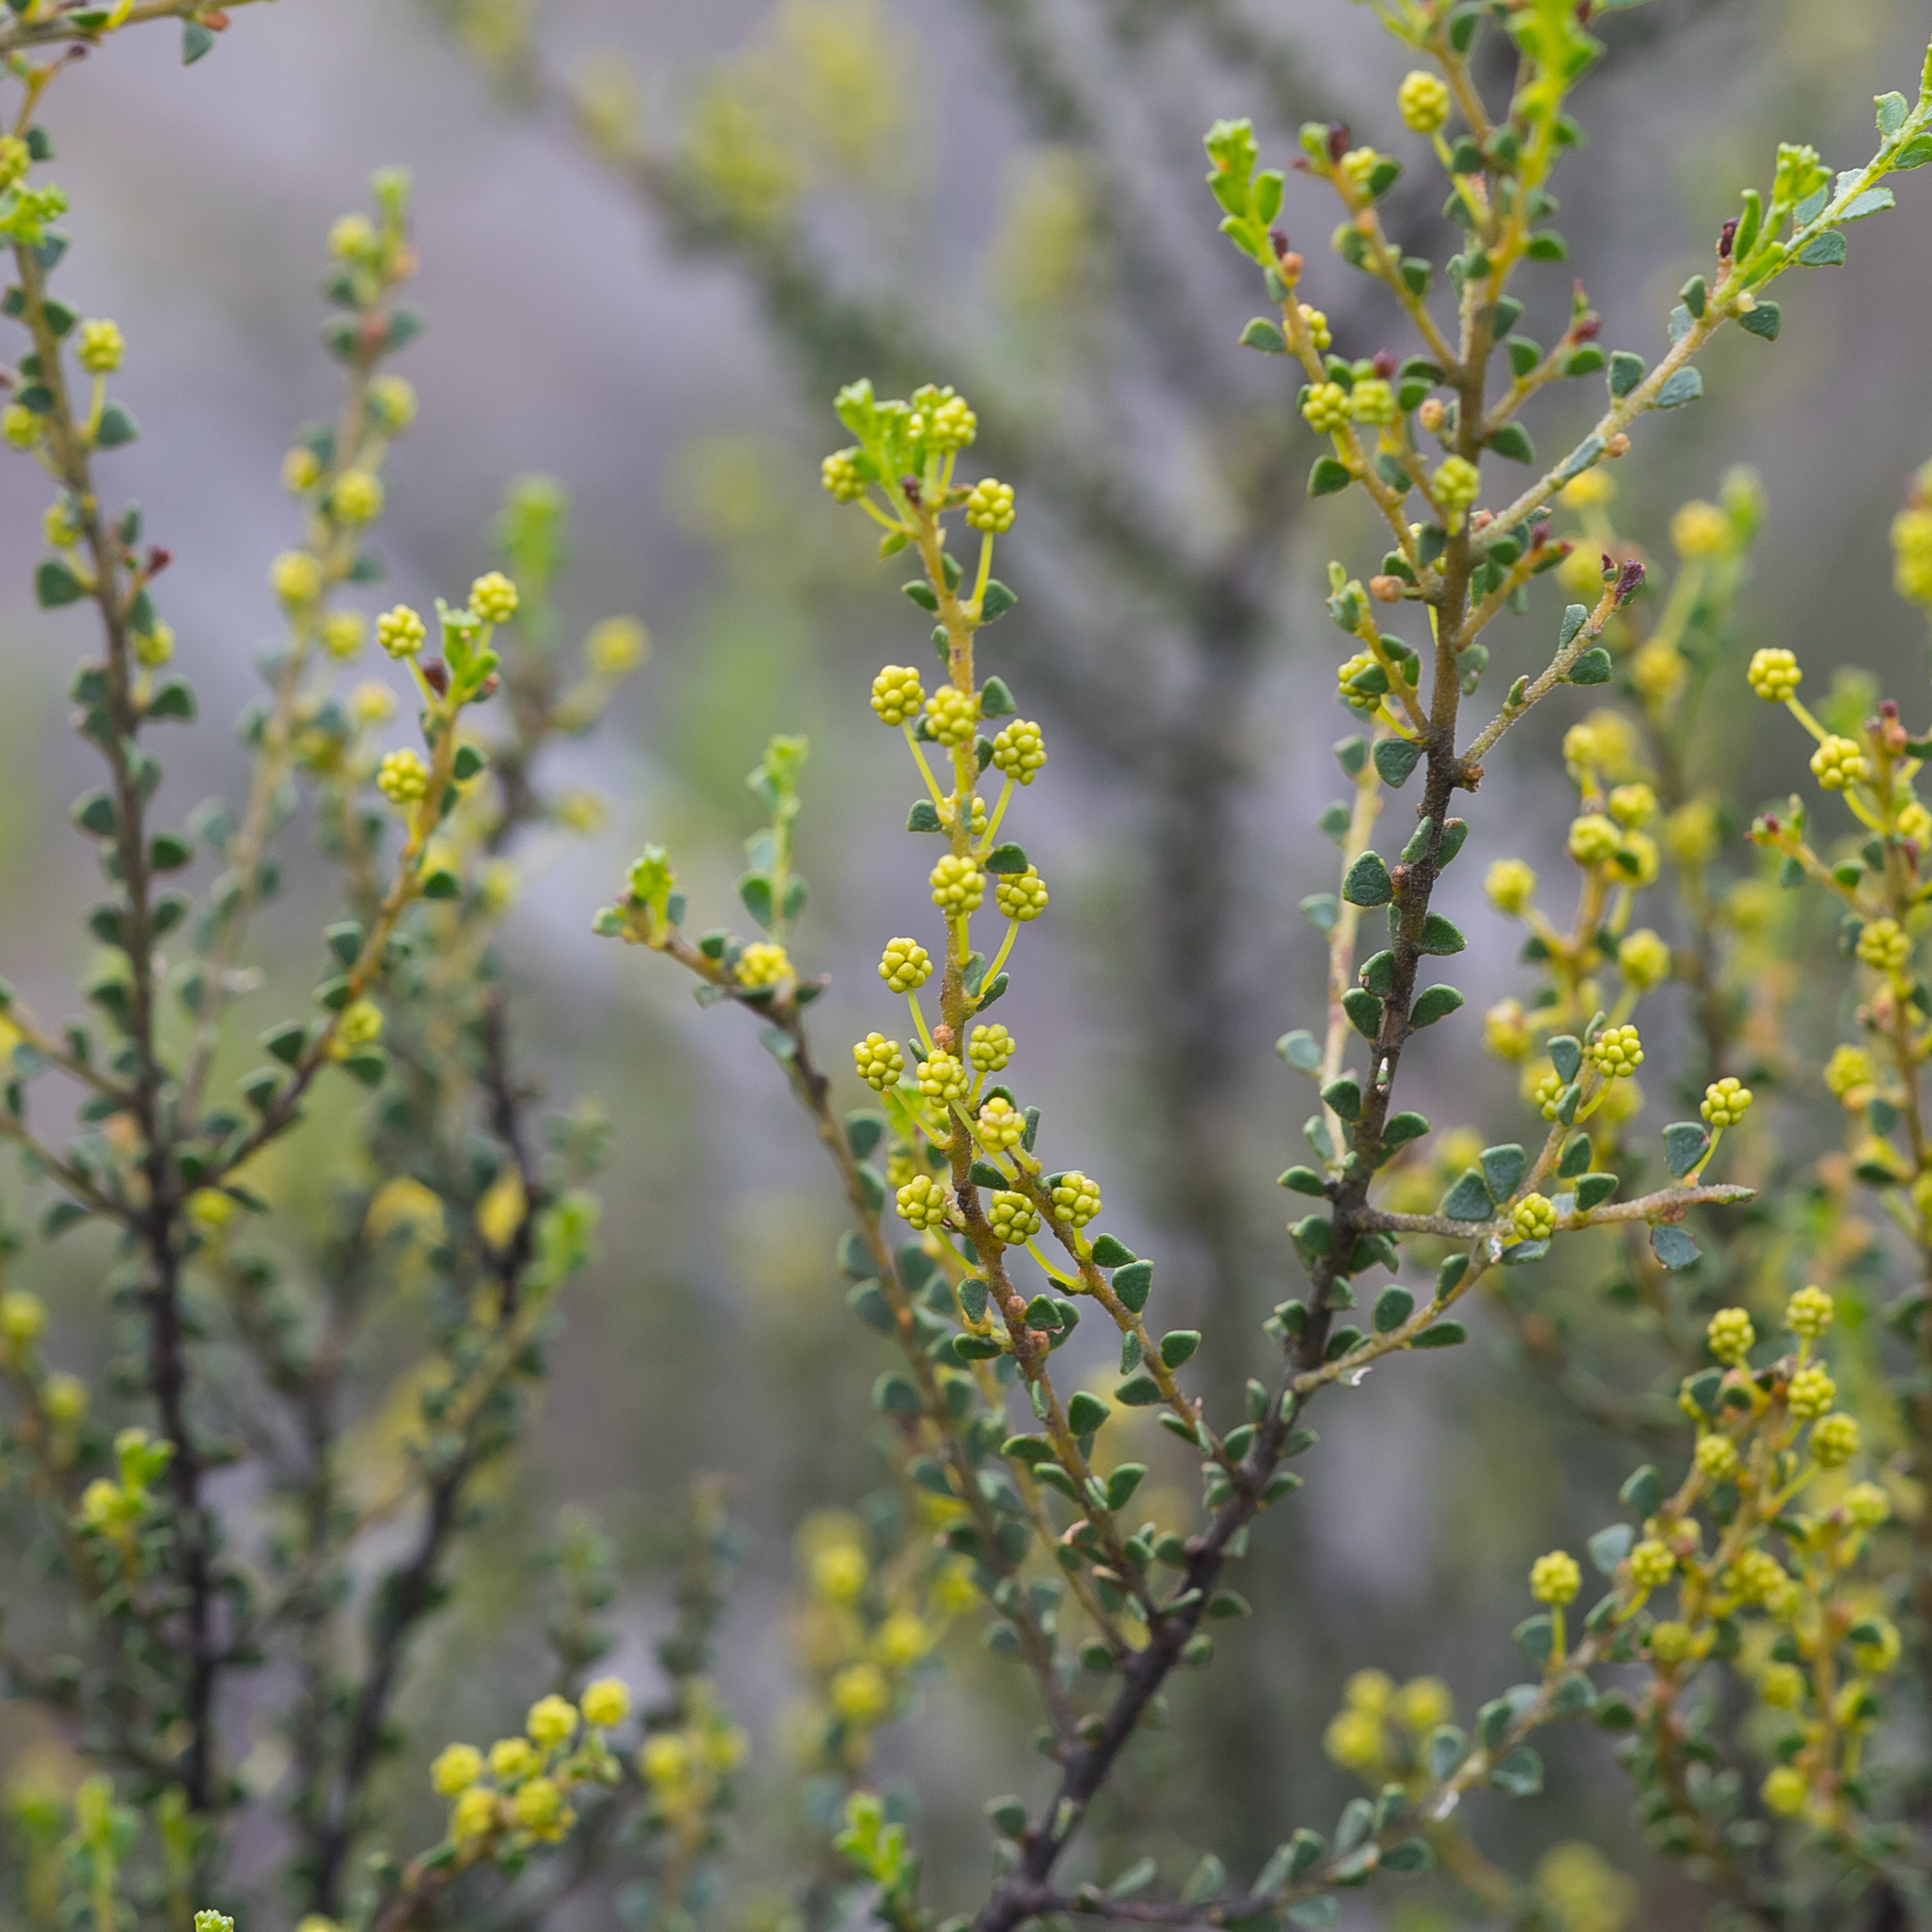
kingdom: Plantae
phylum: Tracheophyta
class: Magnoliopsida
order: Fabales
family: Fabaceae
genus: Acacia
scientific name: Acacia rhetinocarpa
